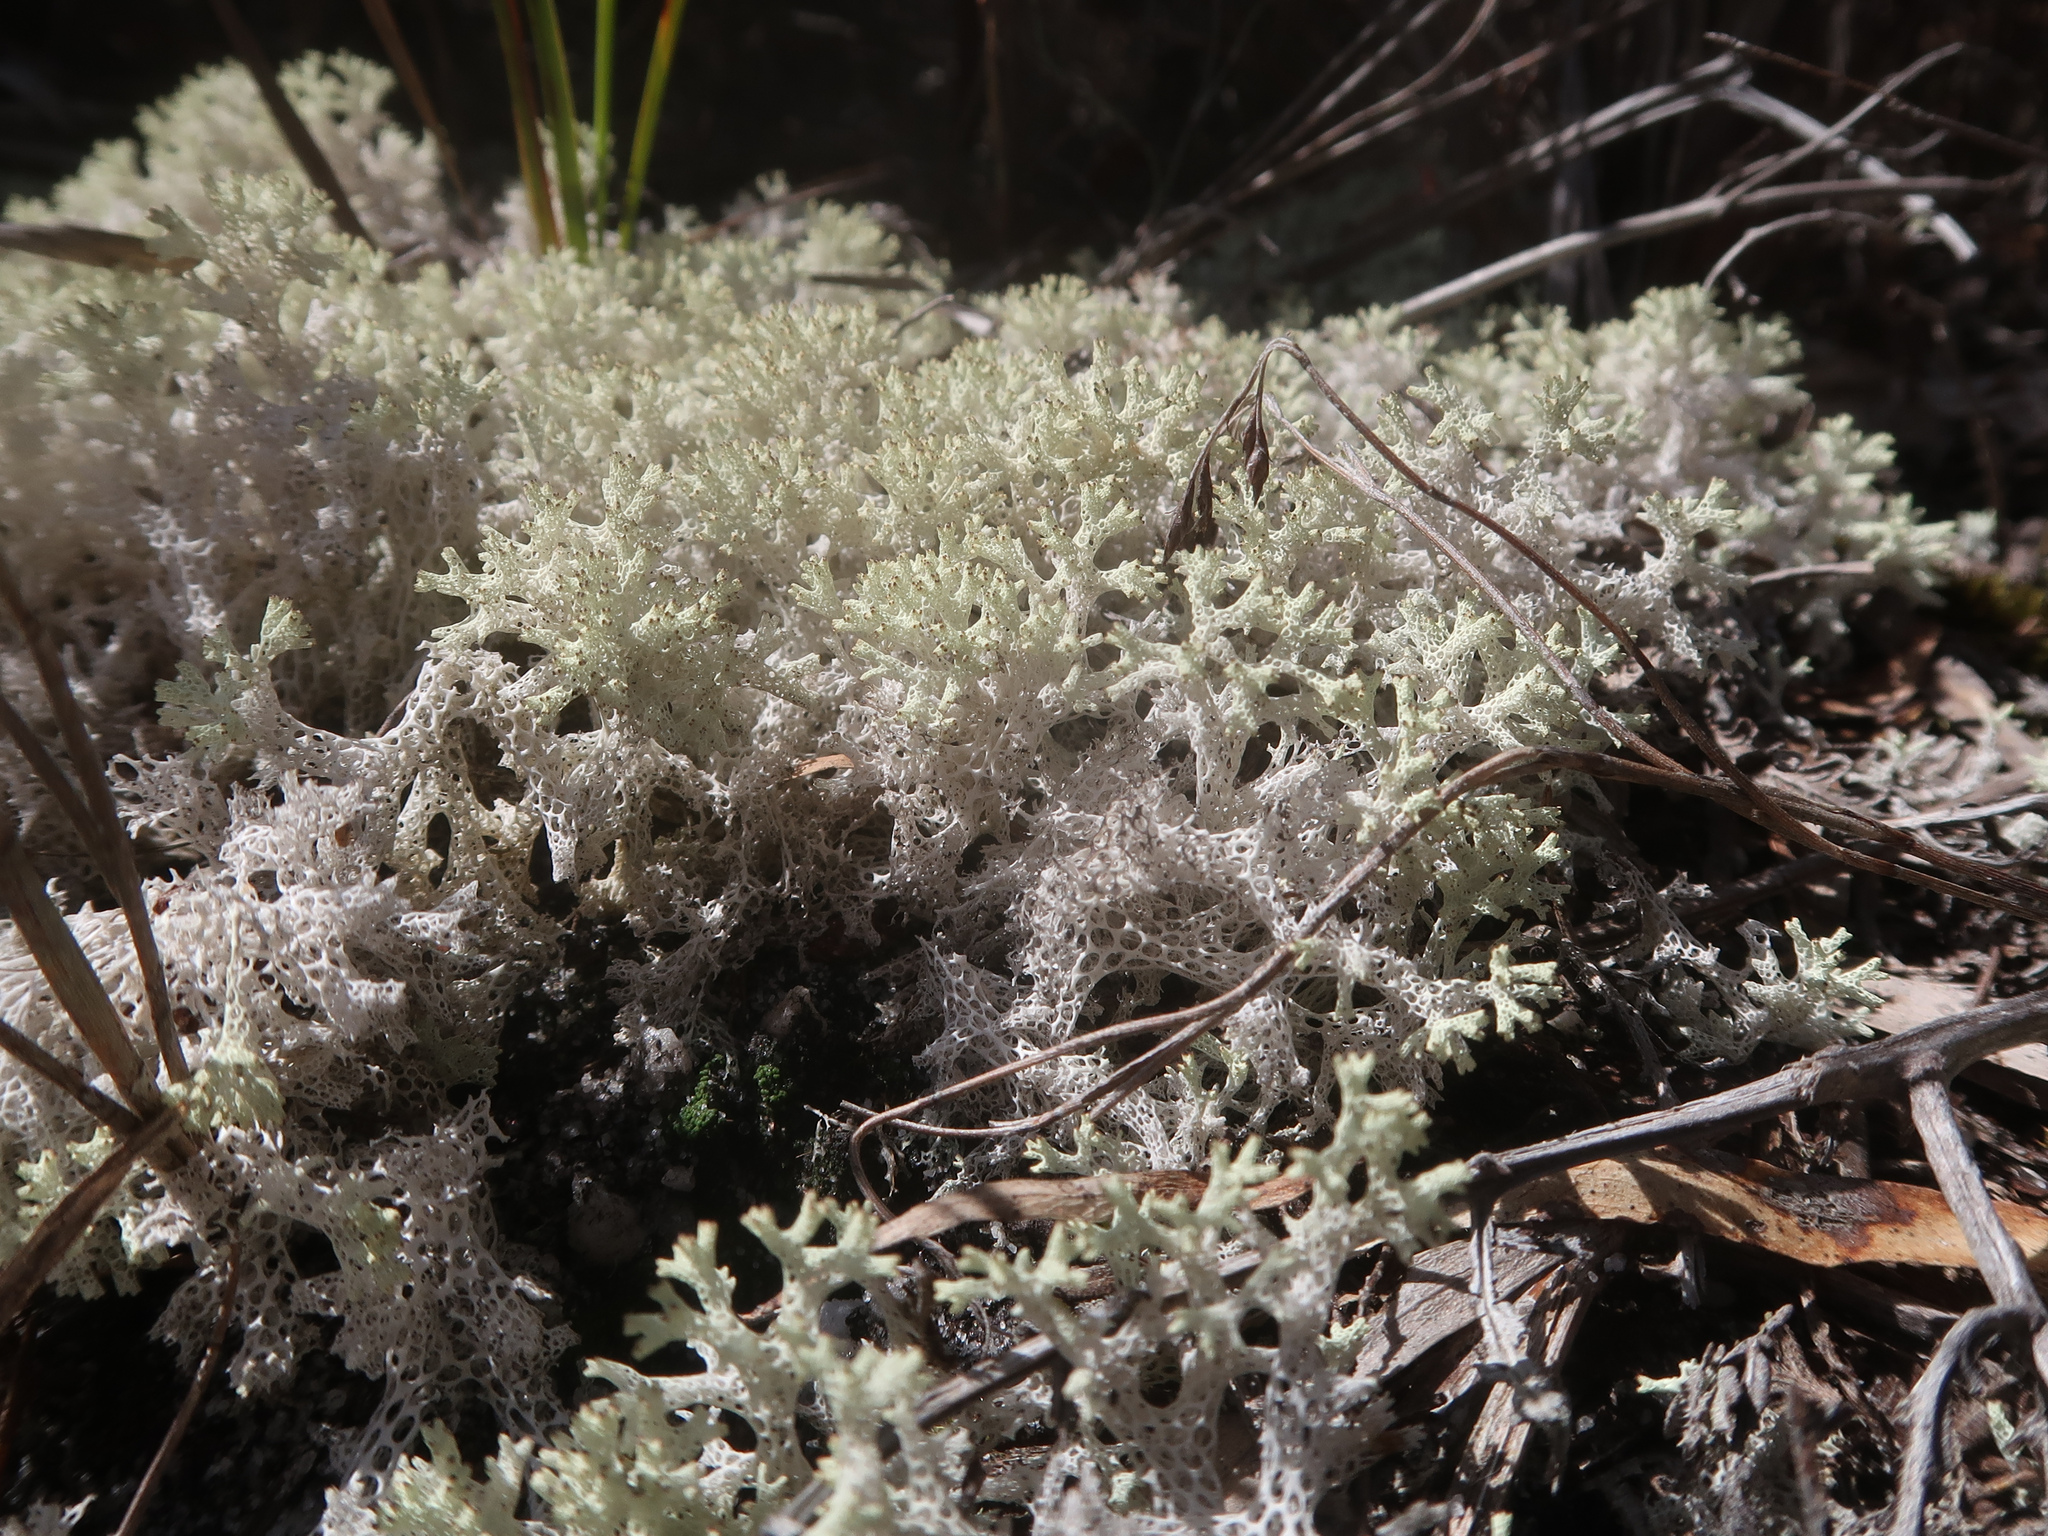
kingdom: Fungi
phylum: Ascomycota
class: Lecanoromycetes
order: Lecanorales
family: Cladoniaceae
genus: Pulchrocladia
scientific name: Pulchrocladia retipora
